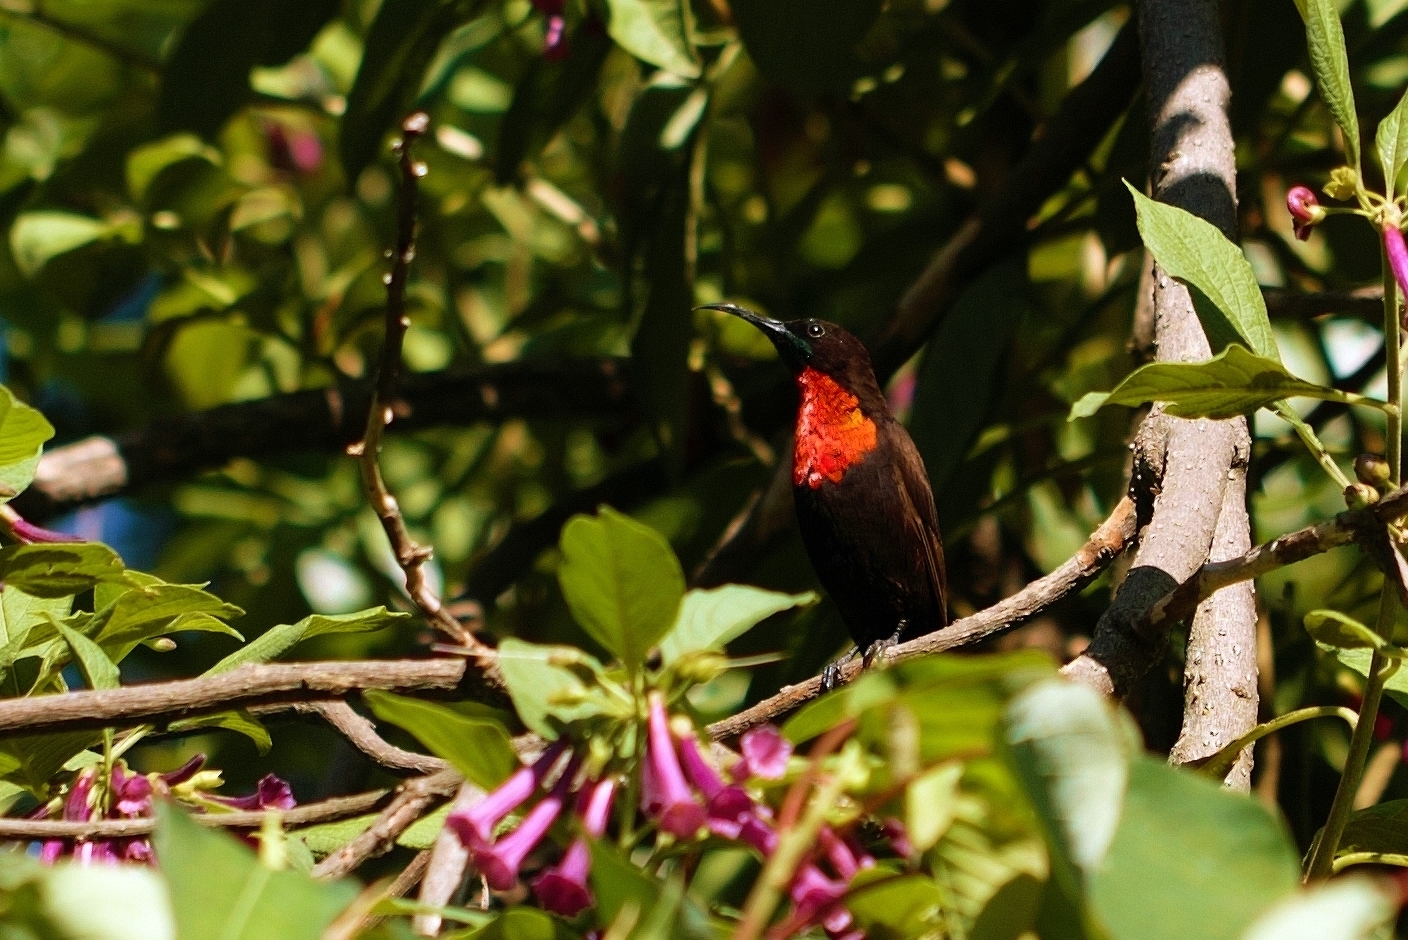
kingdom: Animalia
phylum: Chordata
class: Aves
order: Passeriformes
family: Nectariniidae
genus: Chalcomitra
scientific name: Chalcomitra senegalensis
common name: Scarlet-chested sunbird
